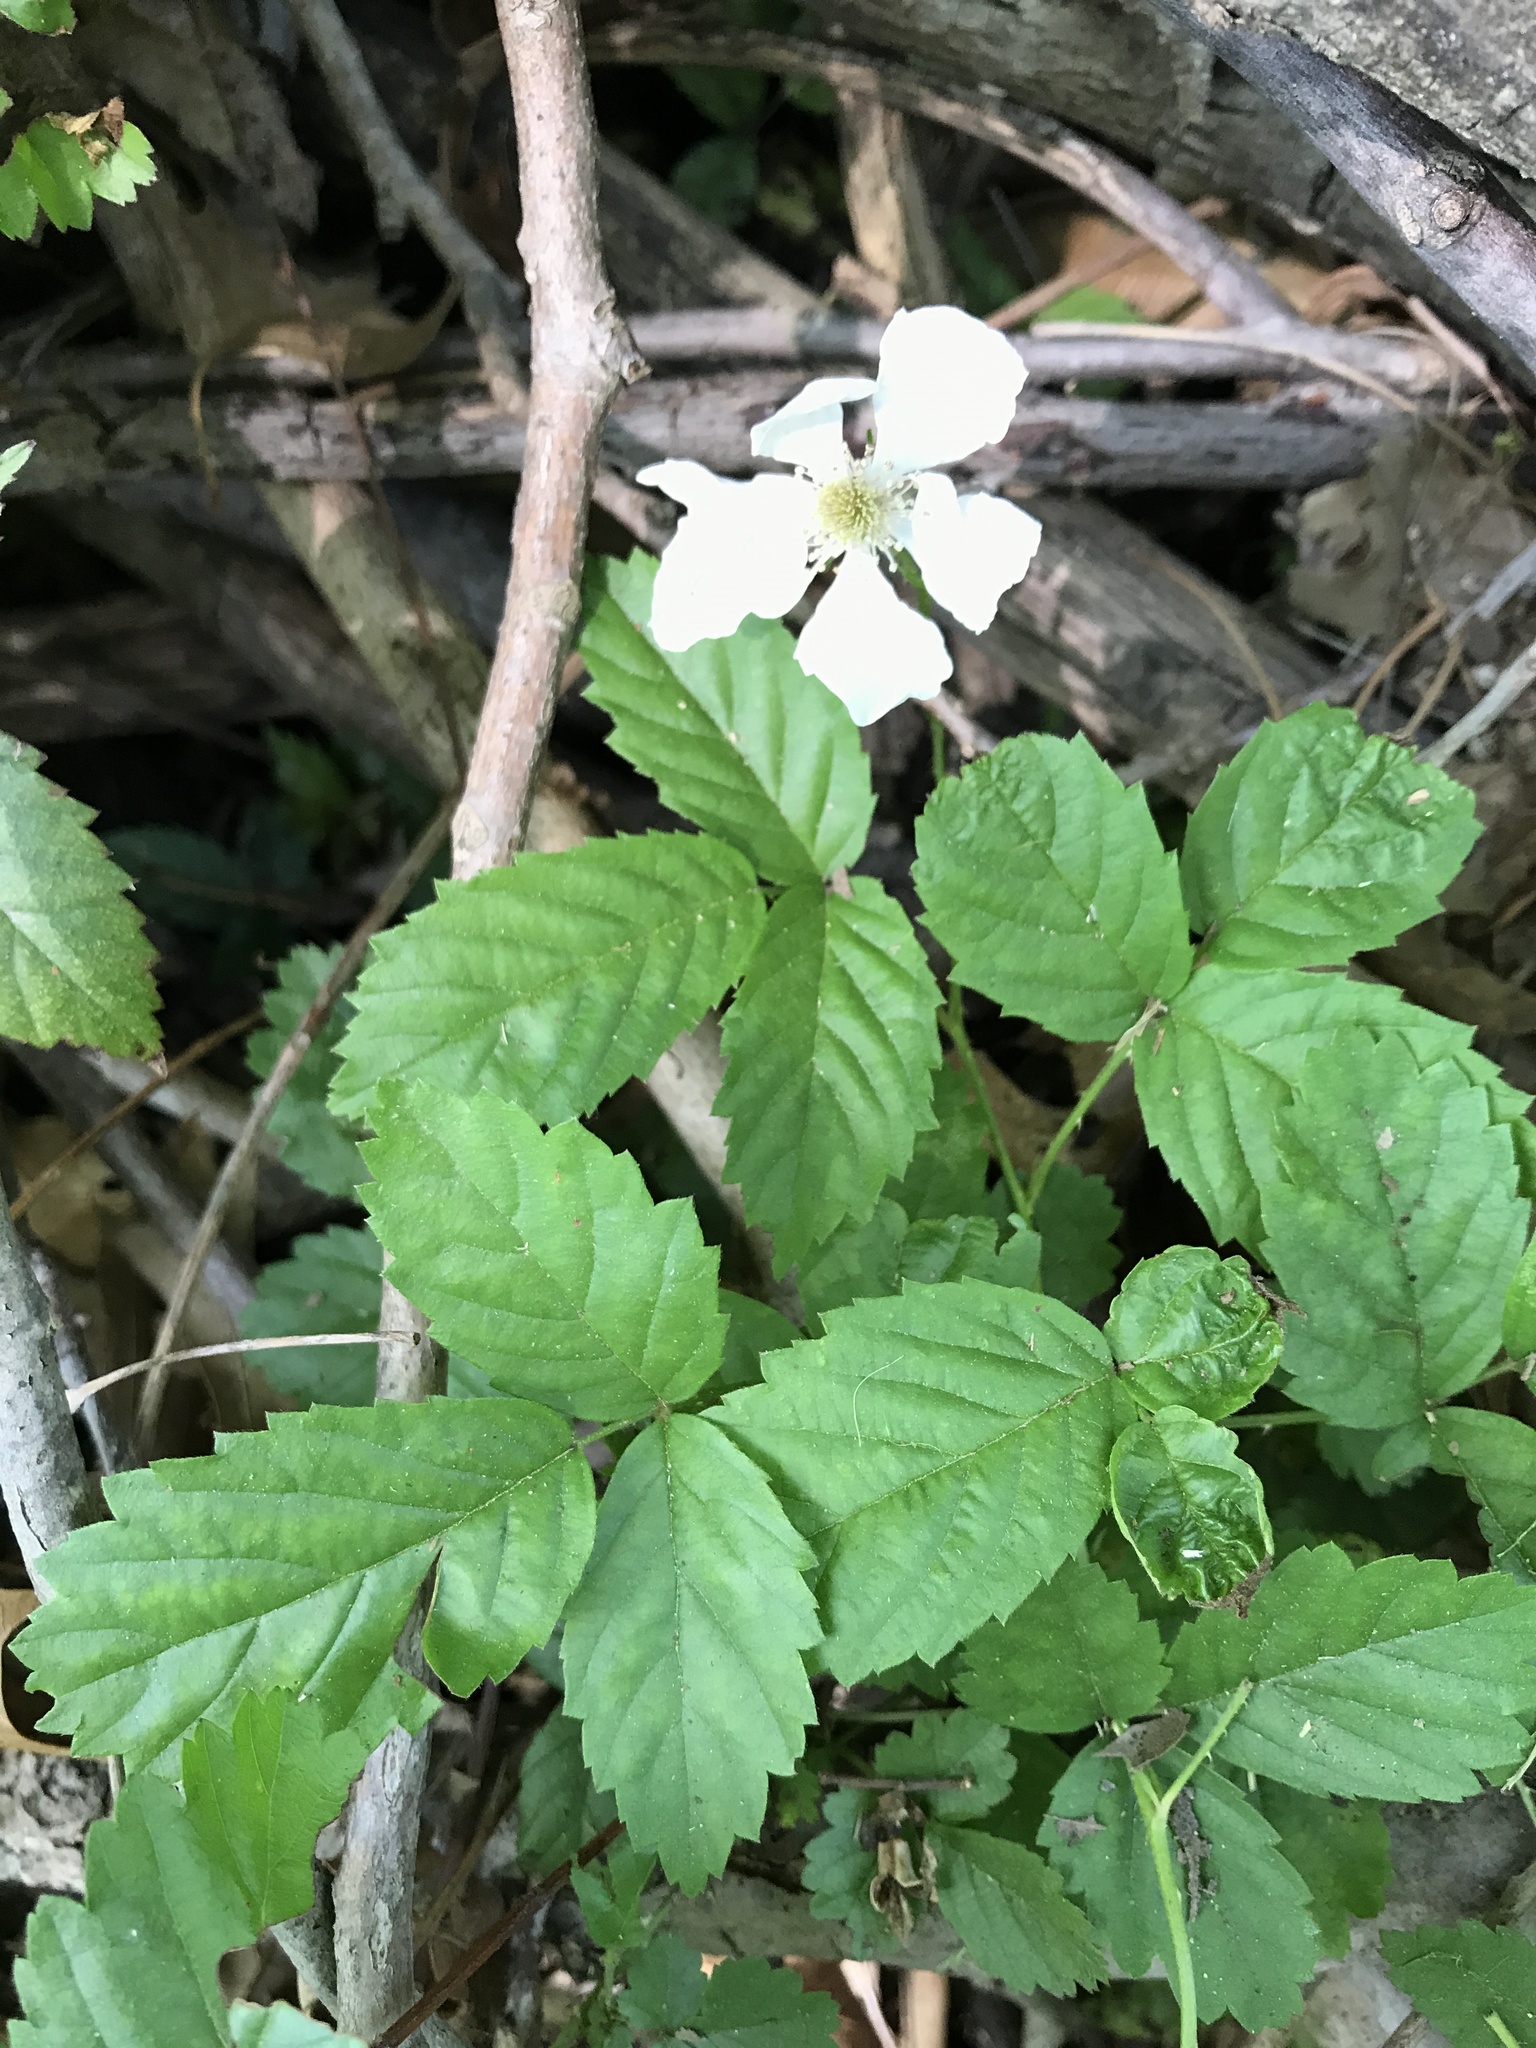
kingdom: Plantae
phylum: Tracheophyta
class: Magnoliopsida
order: Rosales
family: Rosaceae
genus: Rubus
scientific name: Rubus trivialis
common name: Southern dewberry
